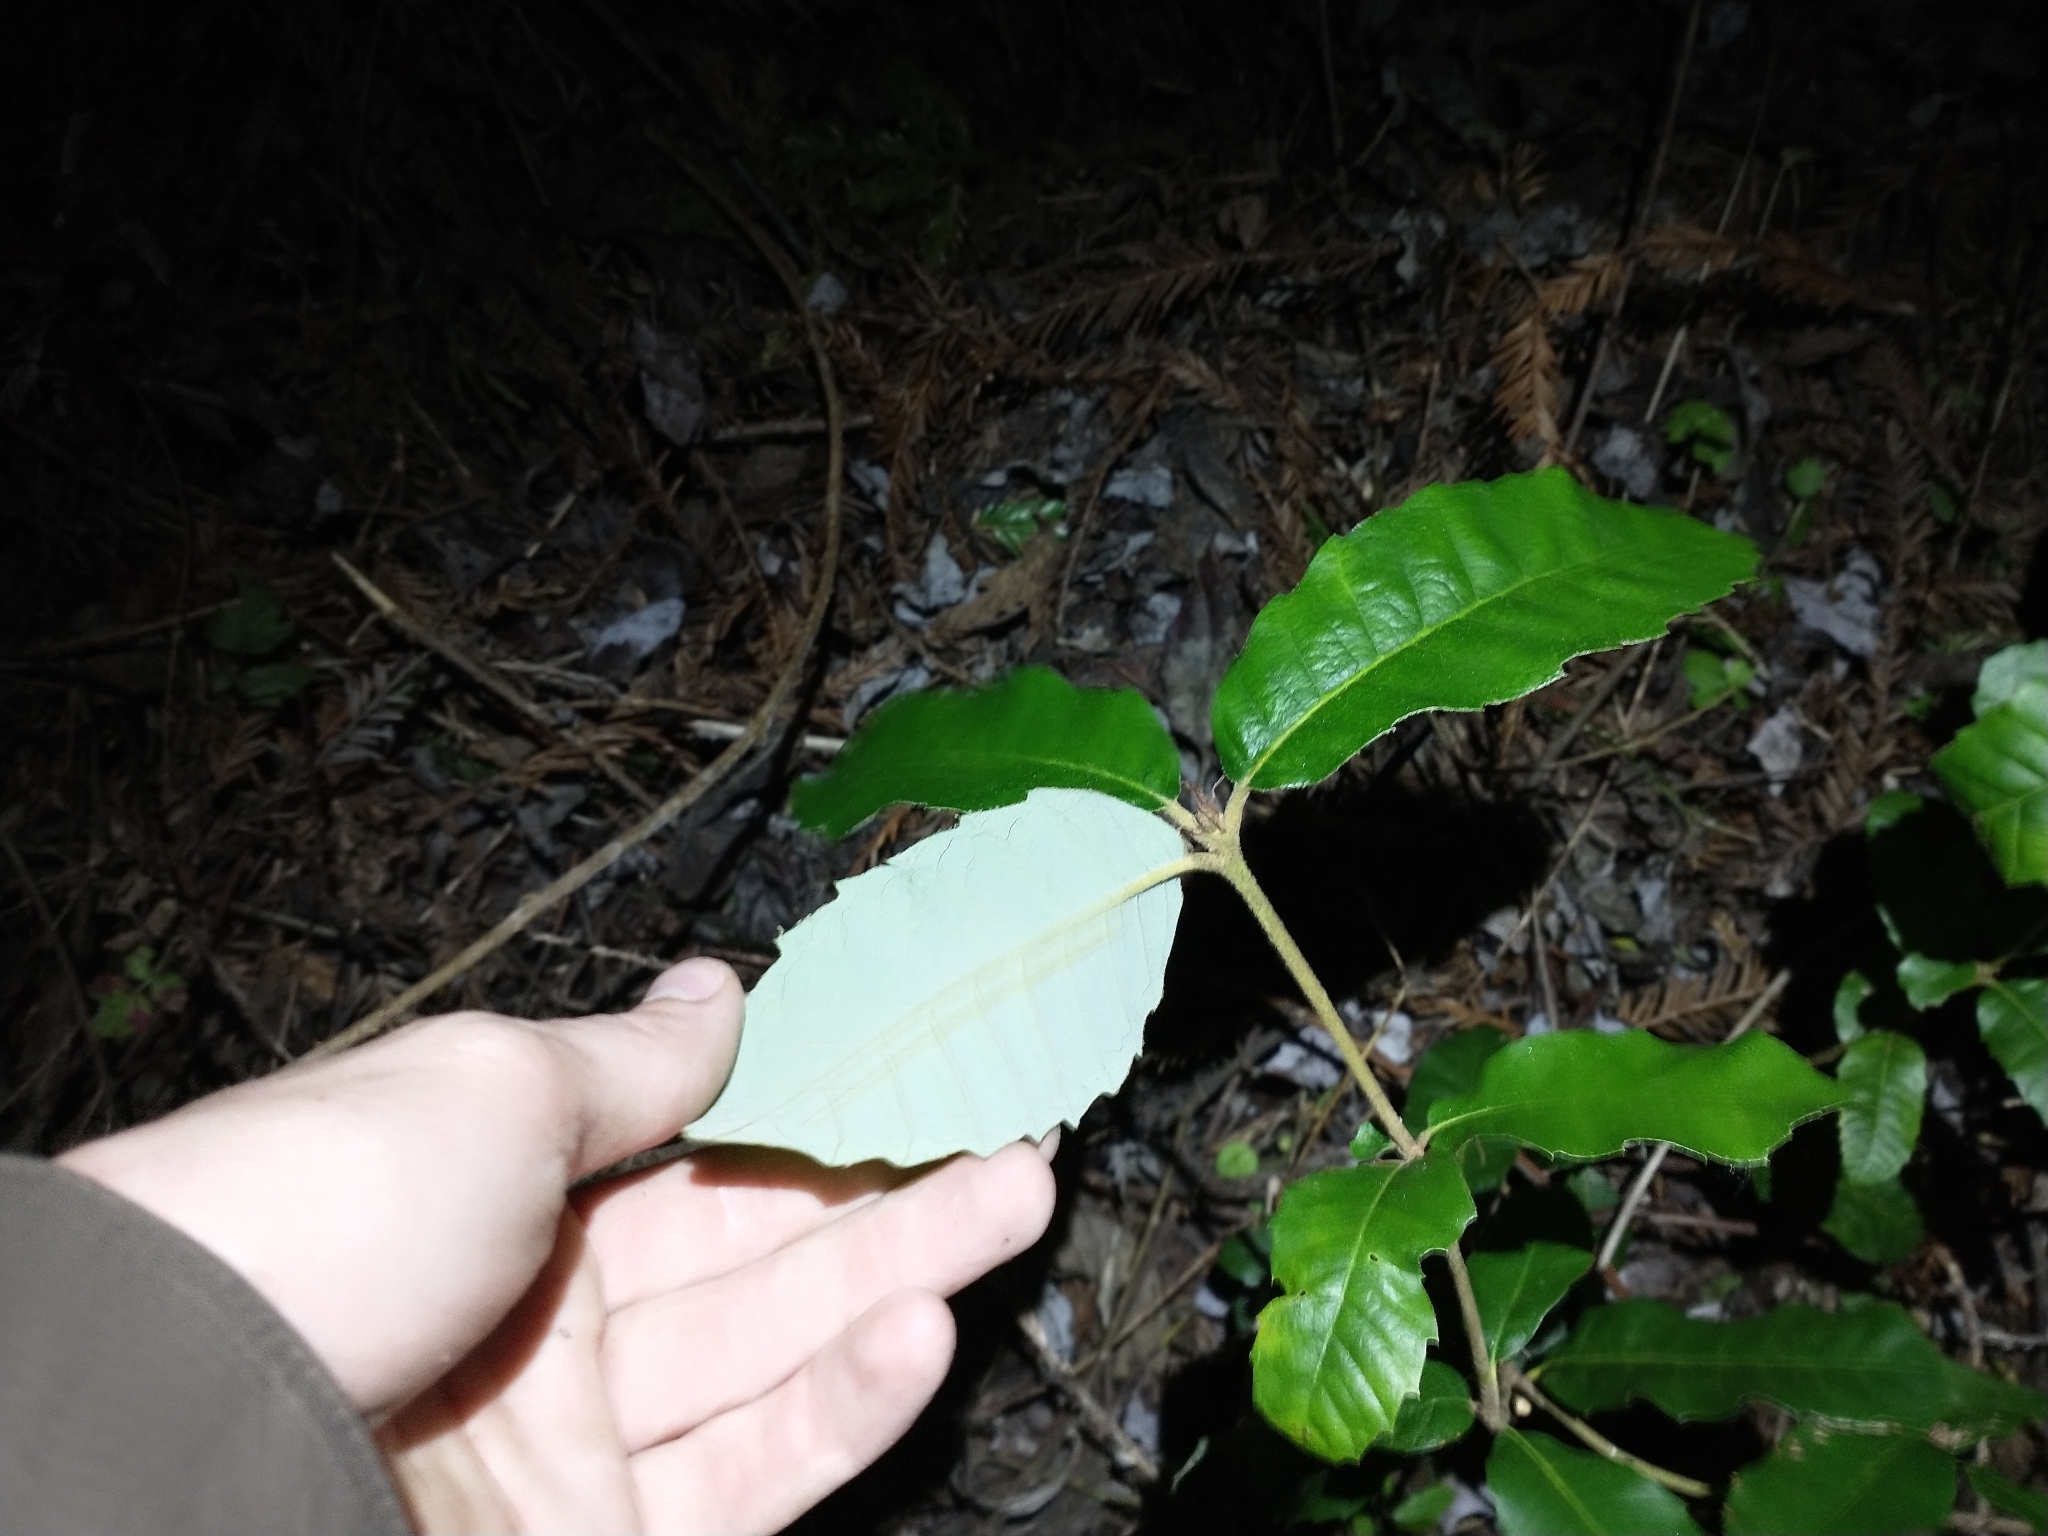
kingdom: Plantae
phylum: Tracheophyta
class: Magnoliopsida
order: Fagales
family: Fagaceae
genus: Notholithocarpus
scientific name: Notholithocarpus densiflorus
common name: Tan bark oak
